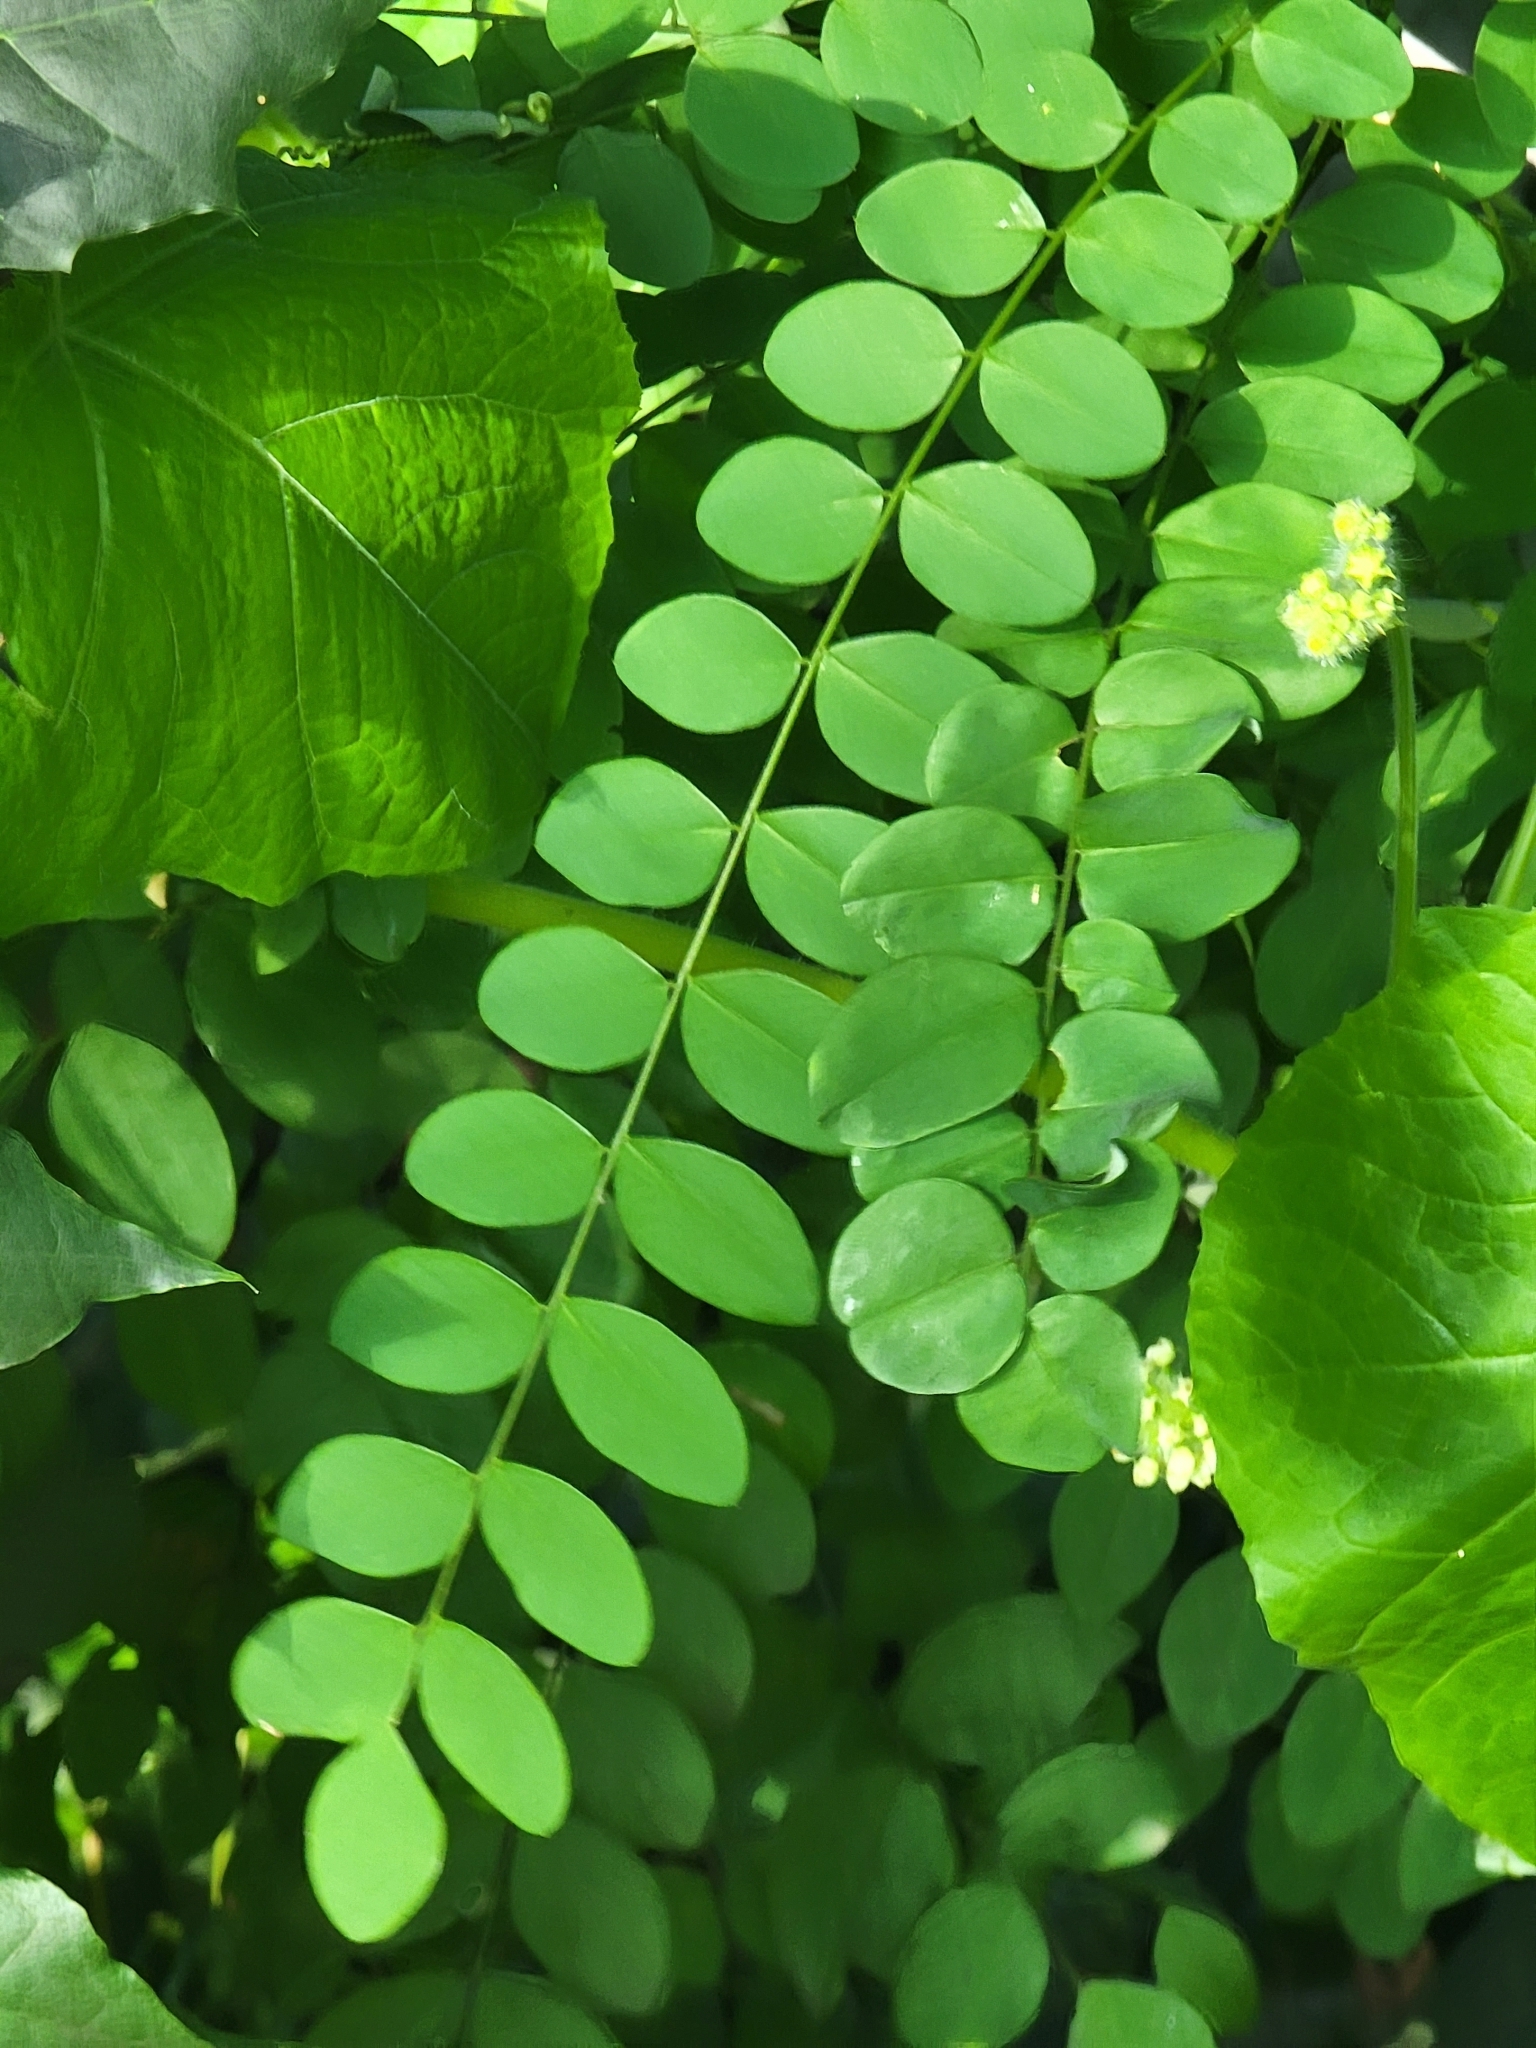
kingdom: Plantae
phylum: Tracheophyta
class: Magnoliopsida
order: Fabales
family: Fabaceae
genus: Robinia
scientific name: Robinia pseudoacacia
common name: Black locust
